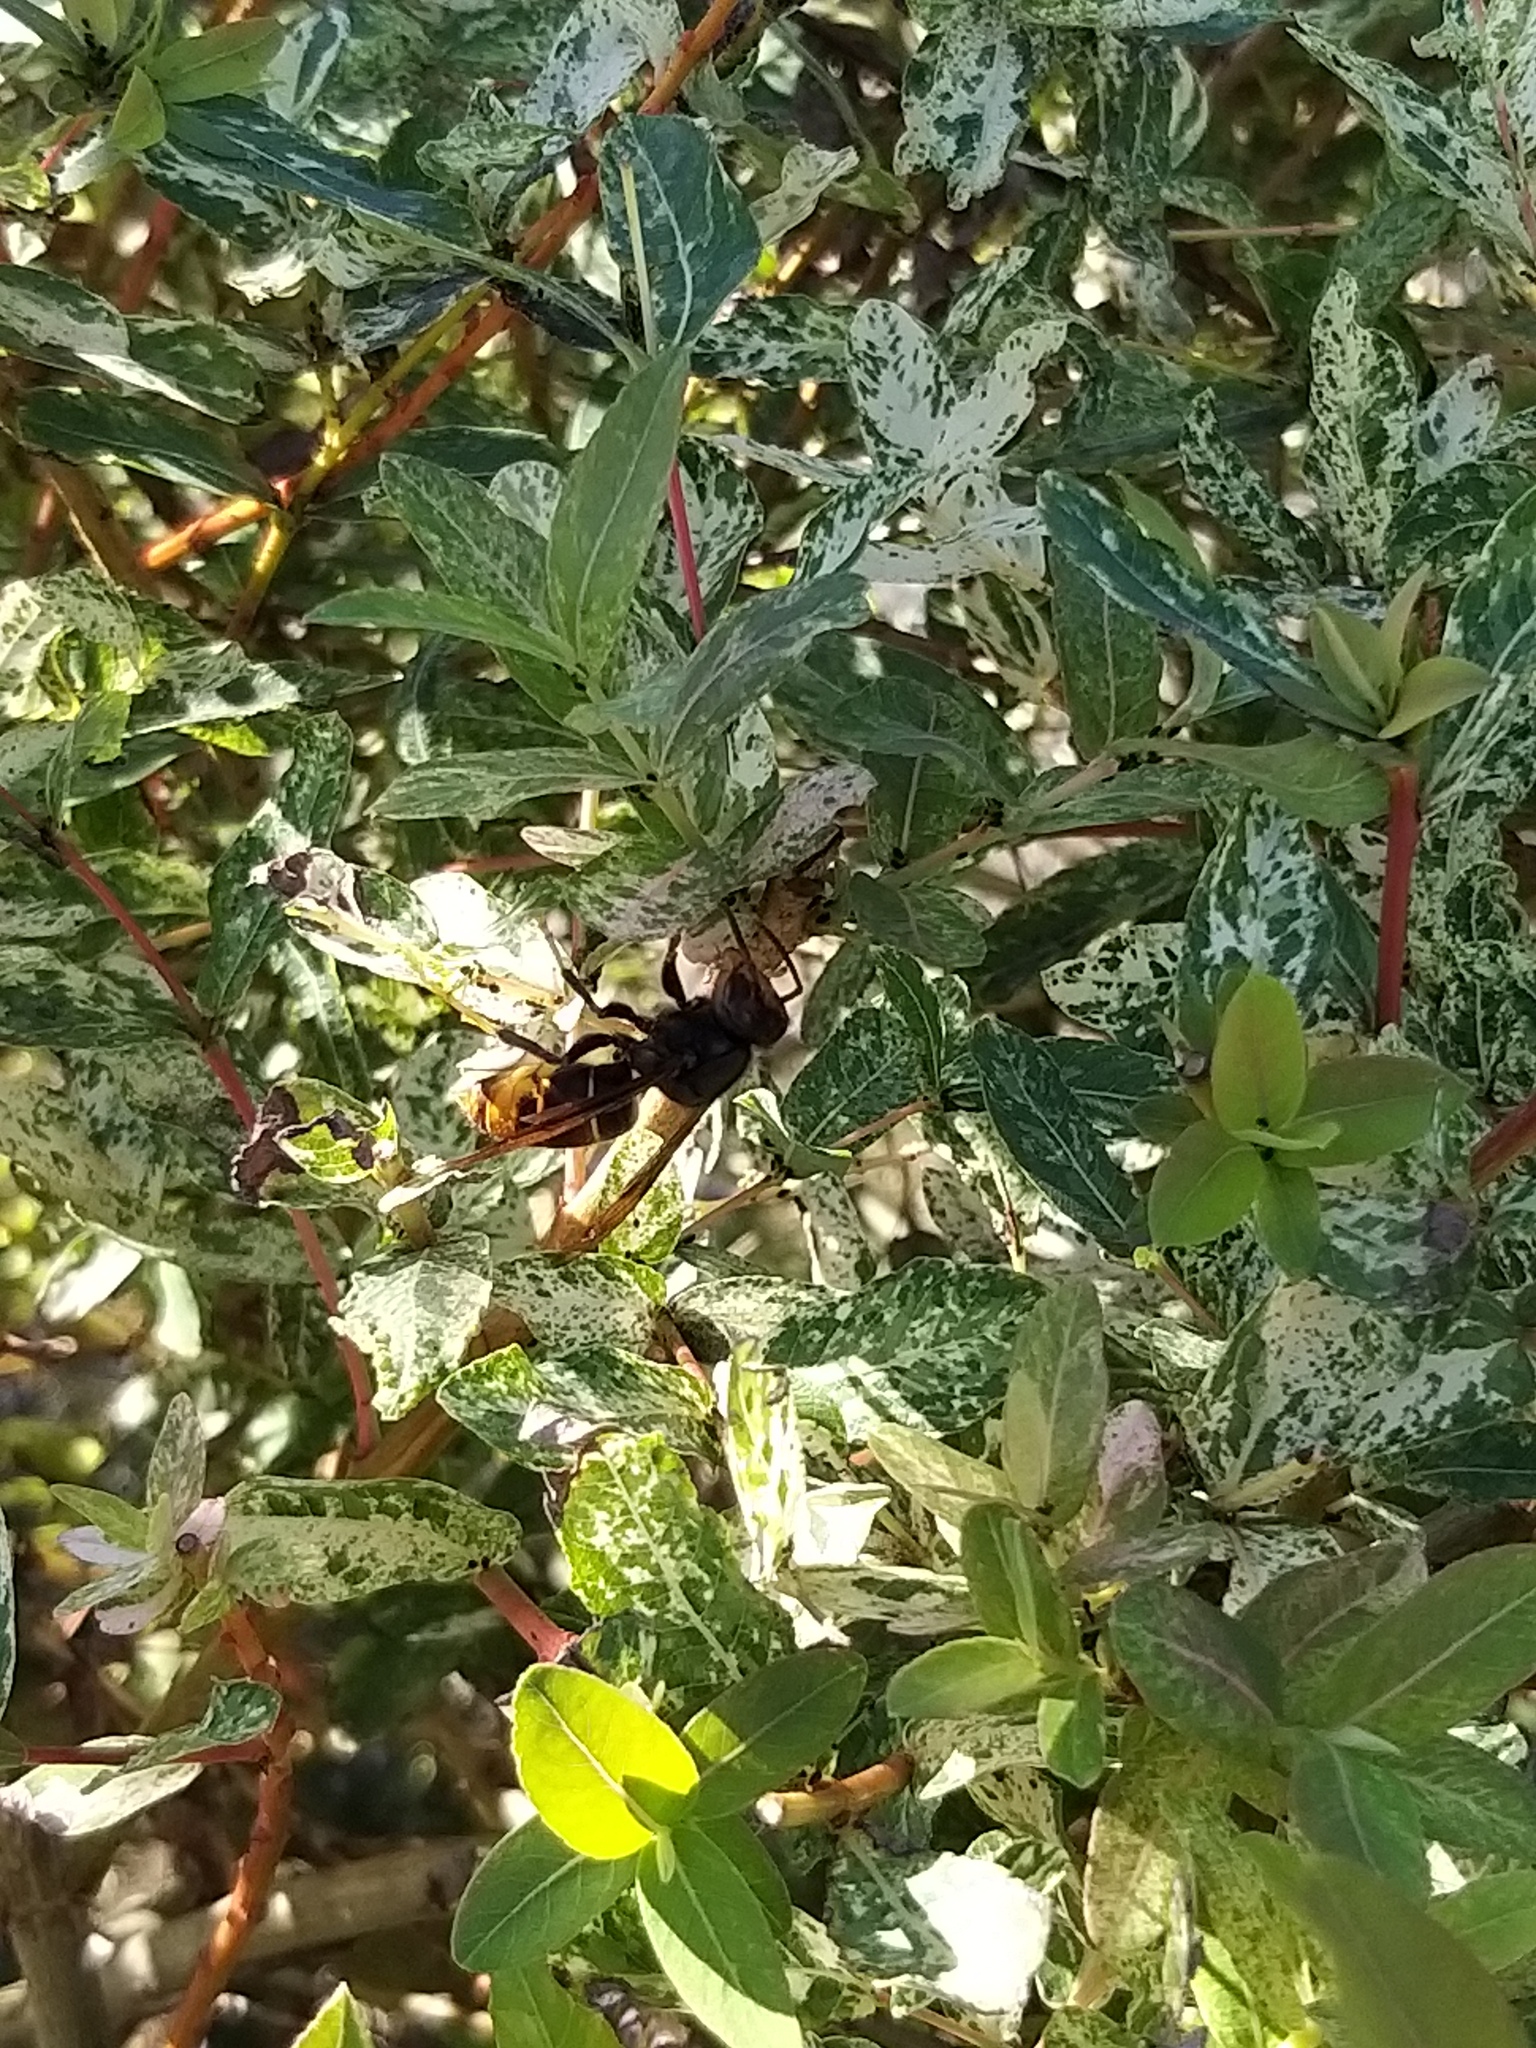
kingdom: Animalia
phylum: Arthropoda
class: Insecta
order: Hymenoptera
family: Vespidae
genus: Vespa
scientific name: Vespa velutina
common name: Asian hornet
